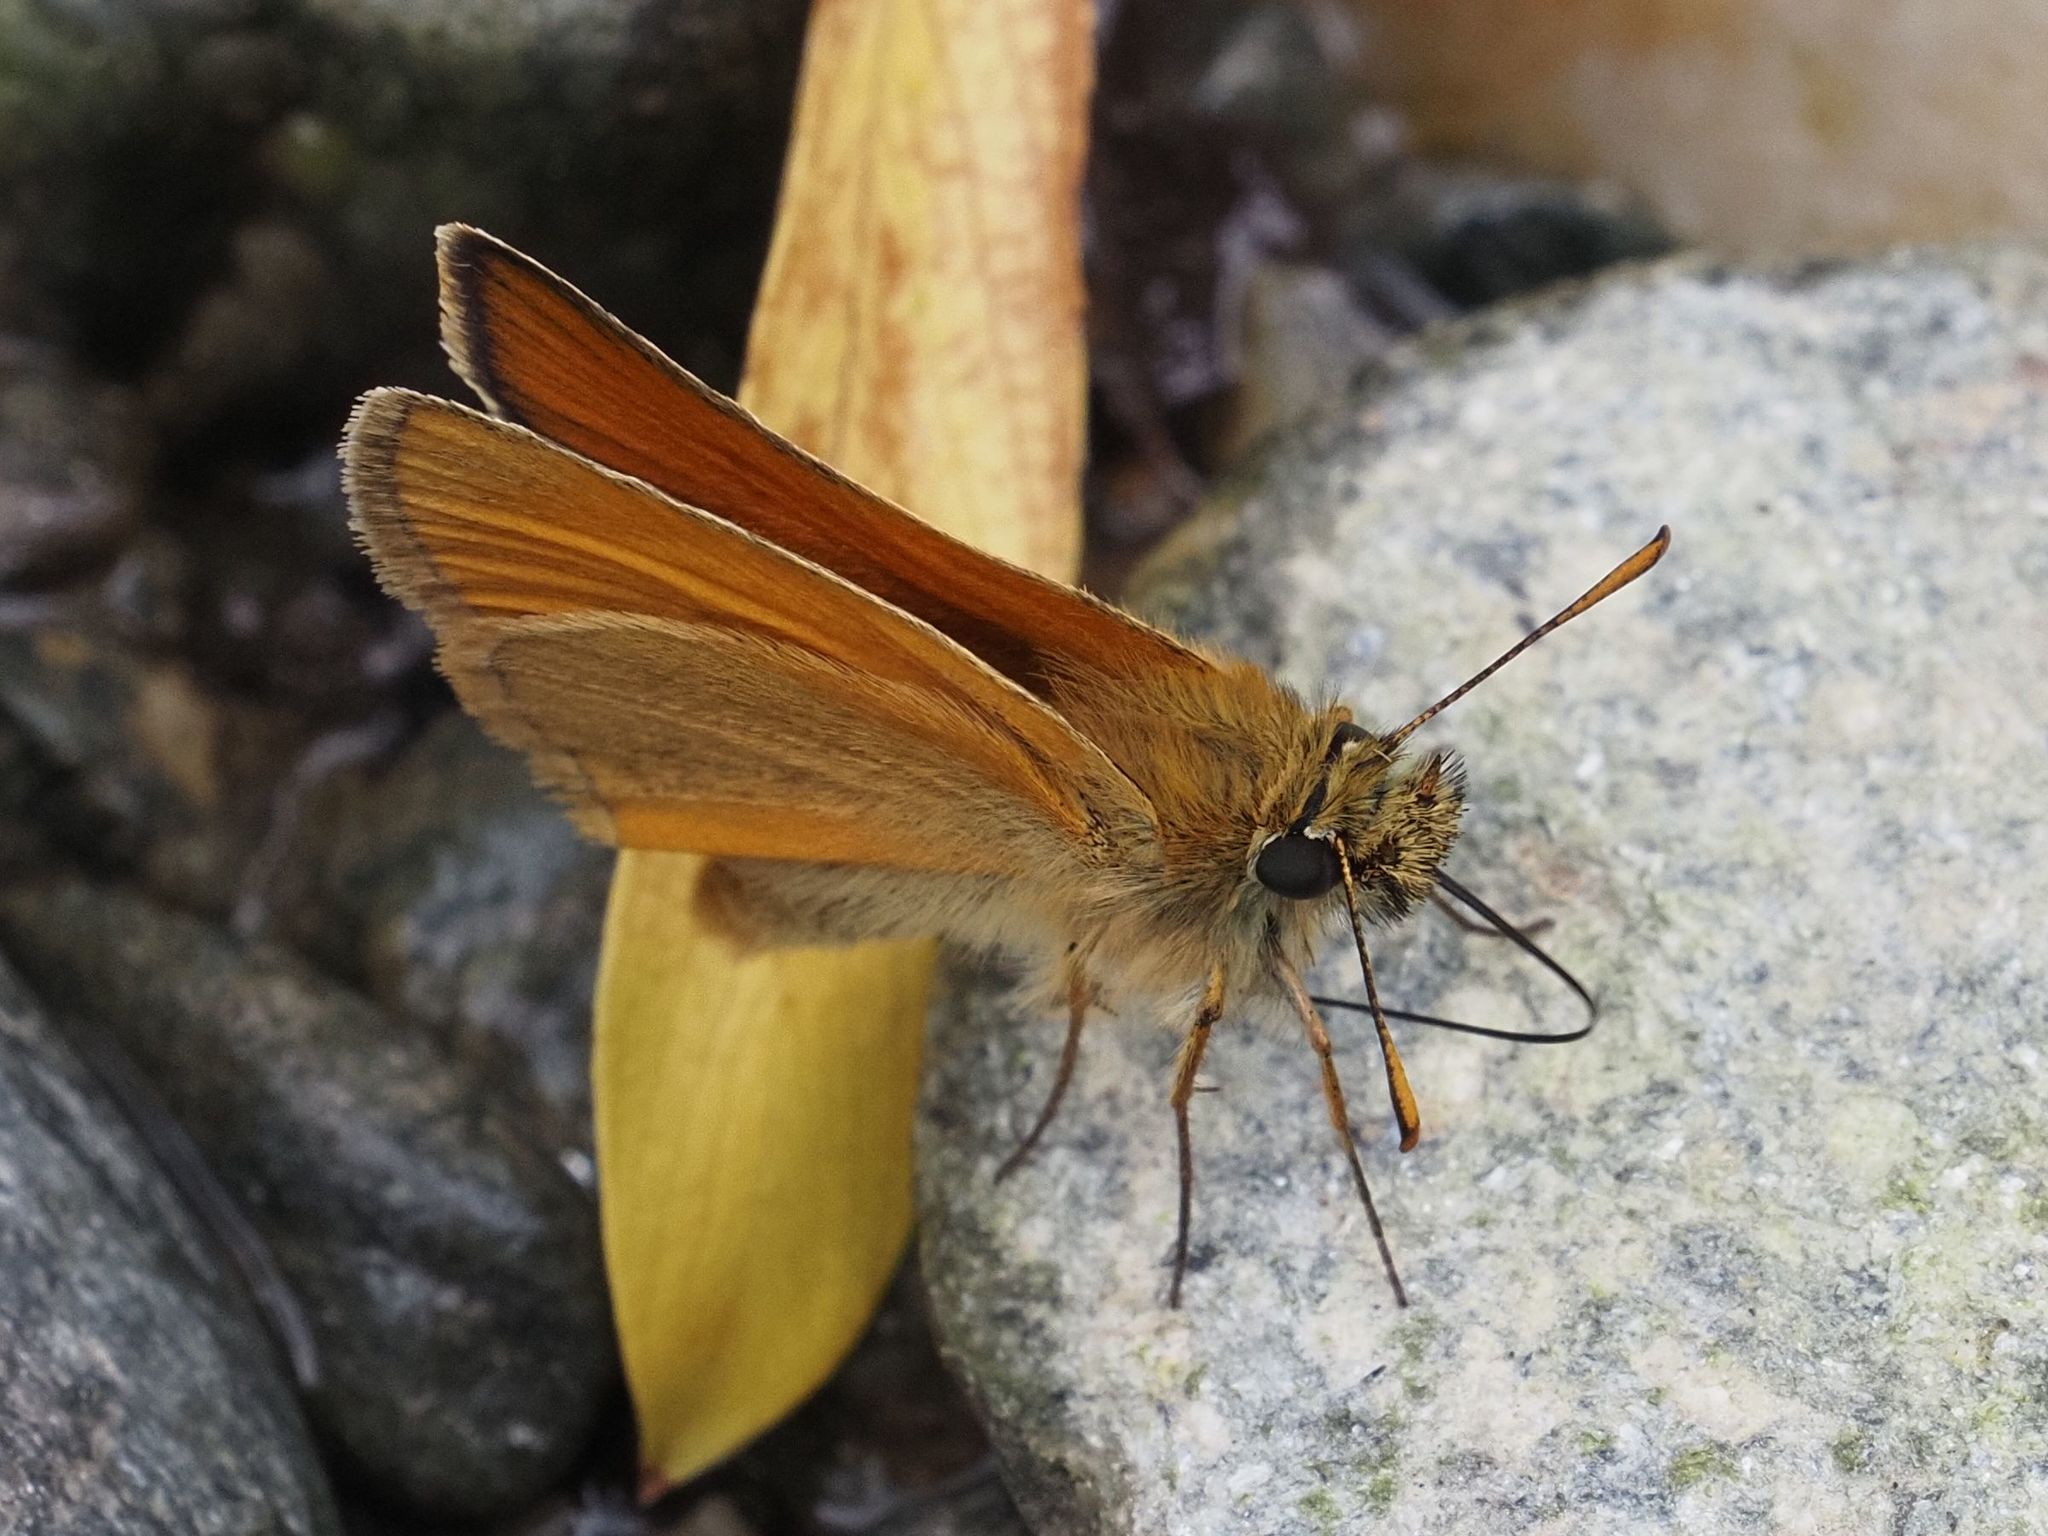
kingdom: Animalia
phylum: Arthropoda
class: Insecta
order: Lepidoptera
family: Hesperiidae
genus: Thymelicus
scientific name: Thymelicus sylvestris
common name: Small skipper
